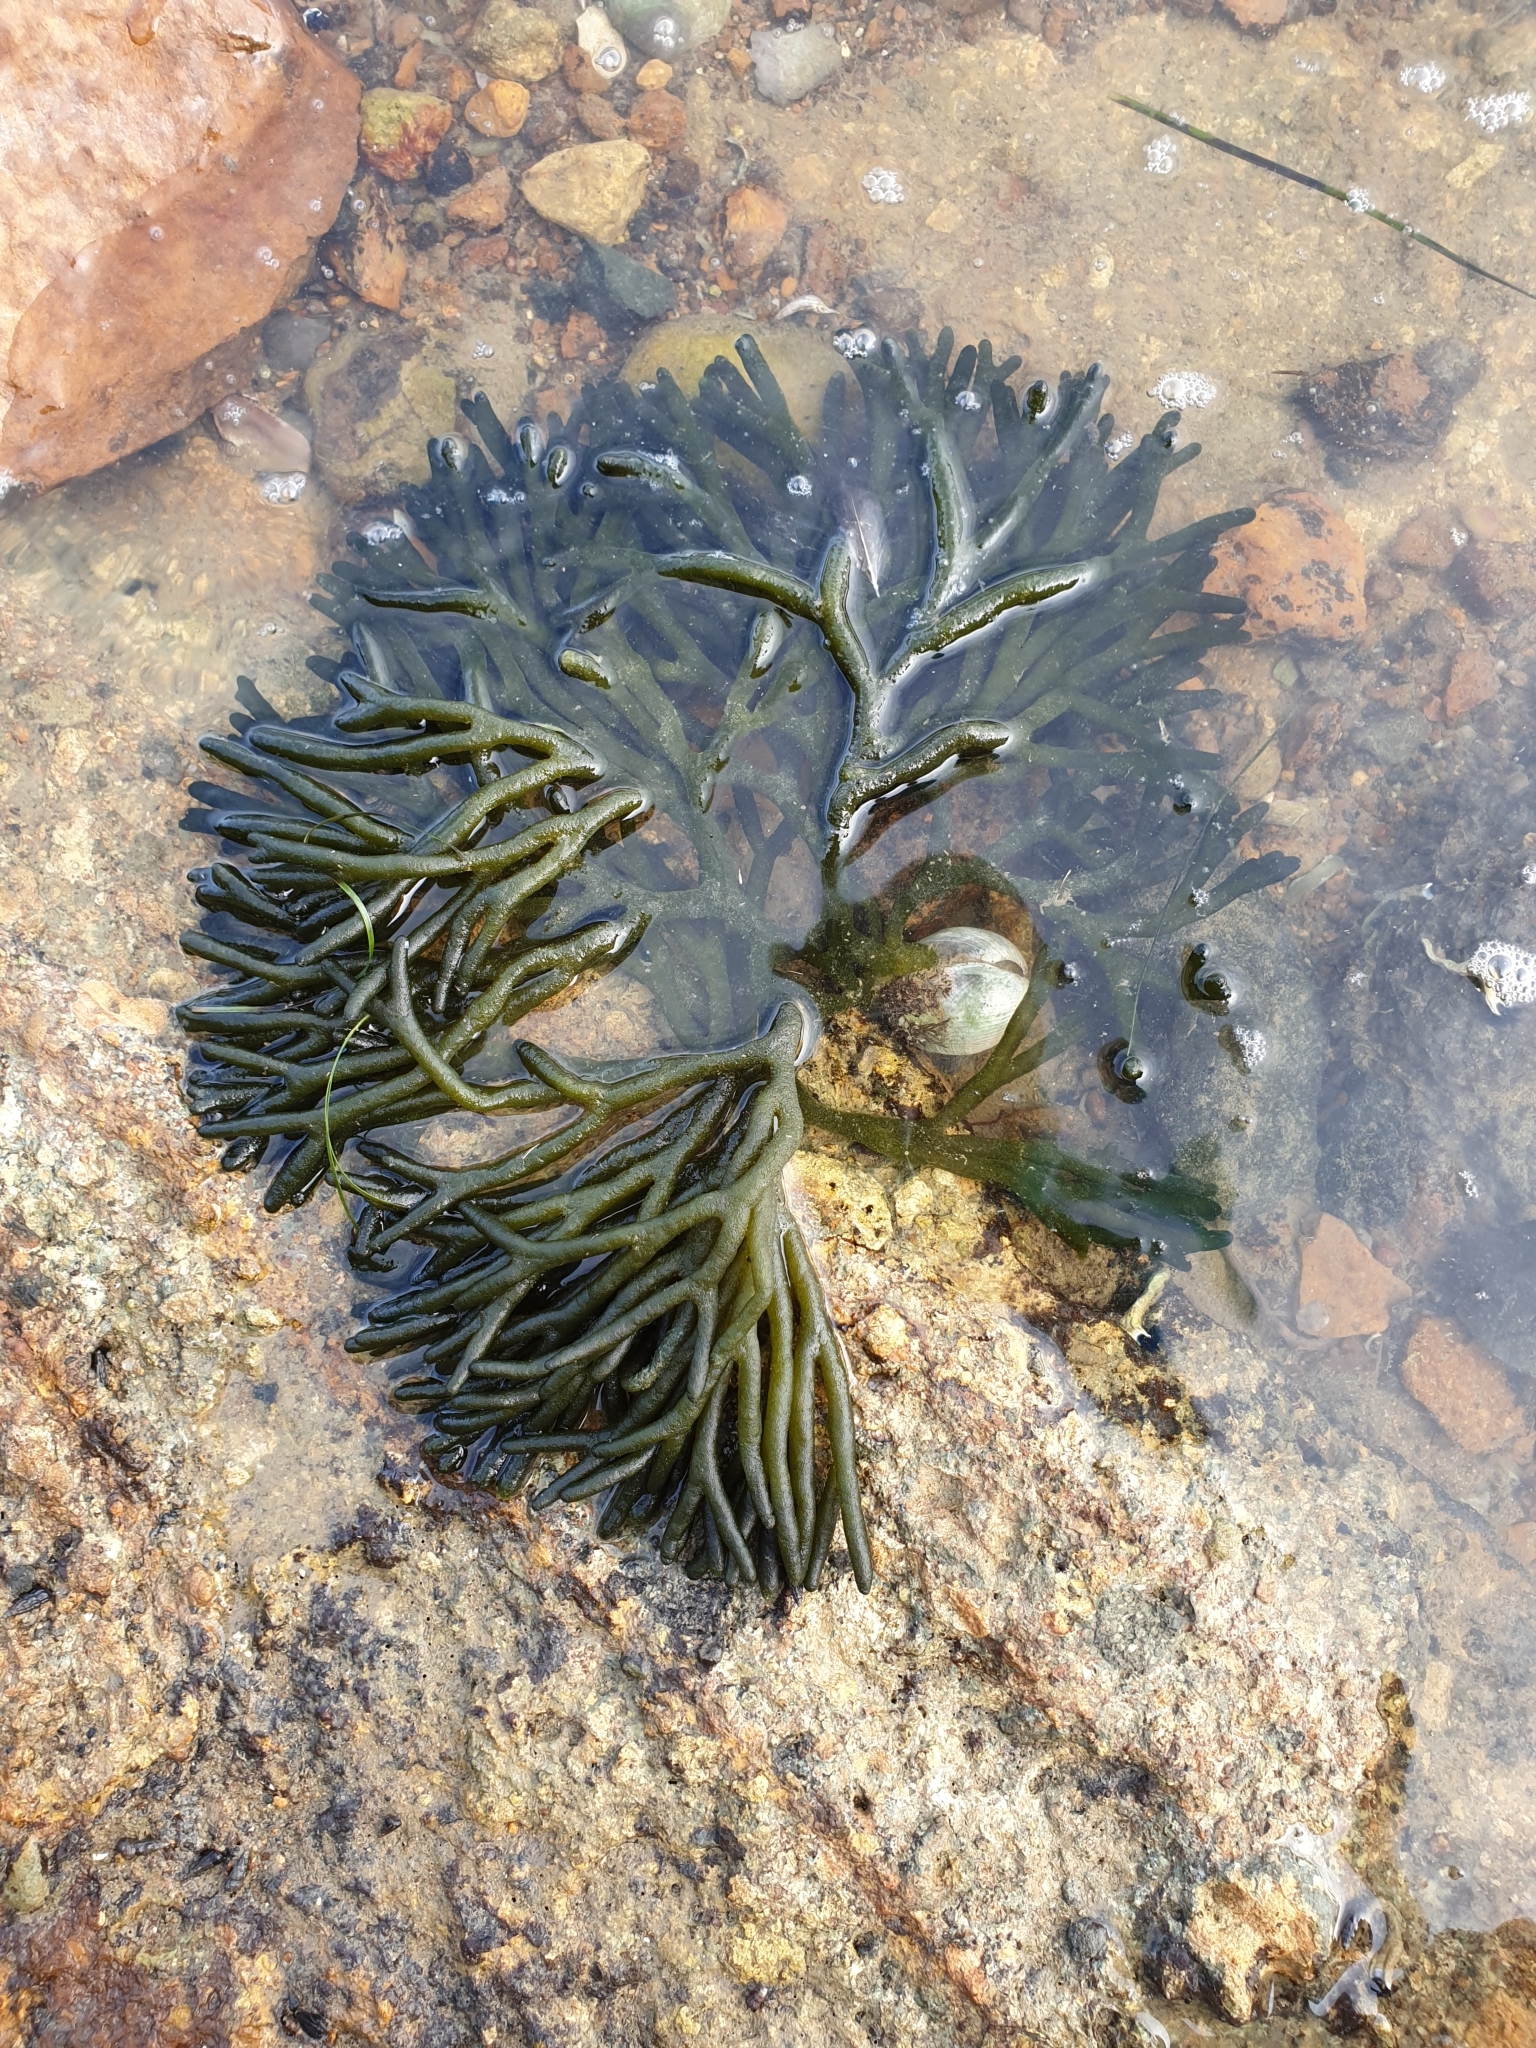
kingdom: Plantae
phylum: Chlorophyta
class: Ulvophyceae
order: Bryopsidales
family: Codiaceae
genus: Codium
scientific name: Codium fragile
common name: Dead man's fingers
